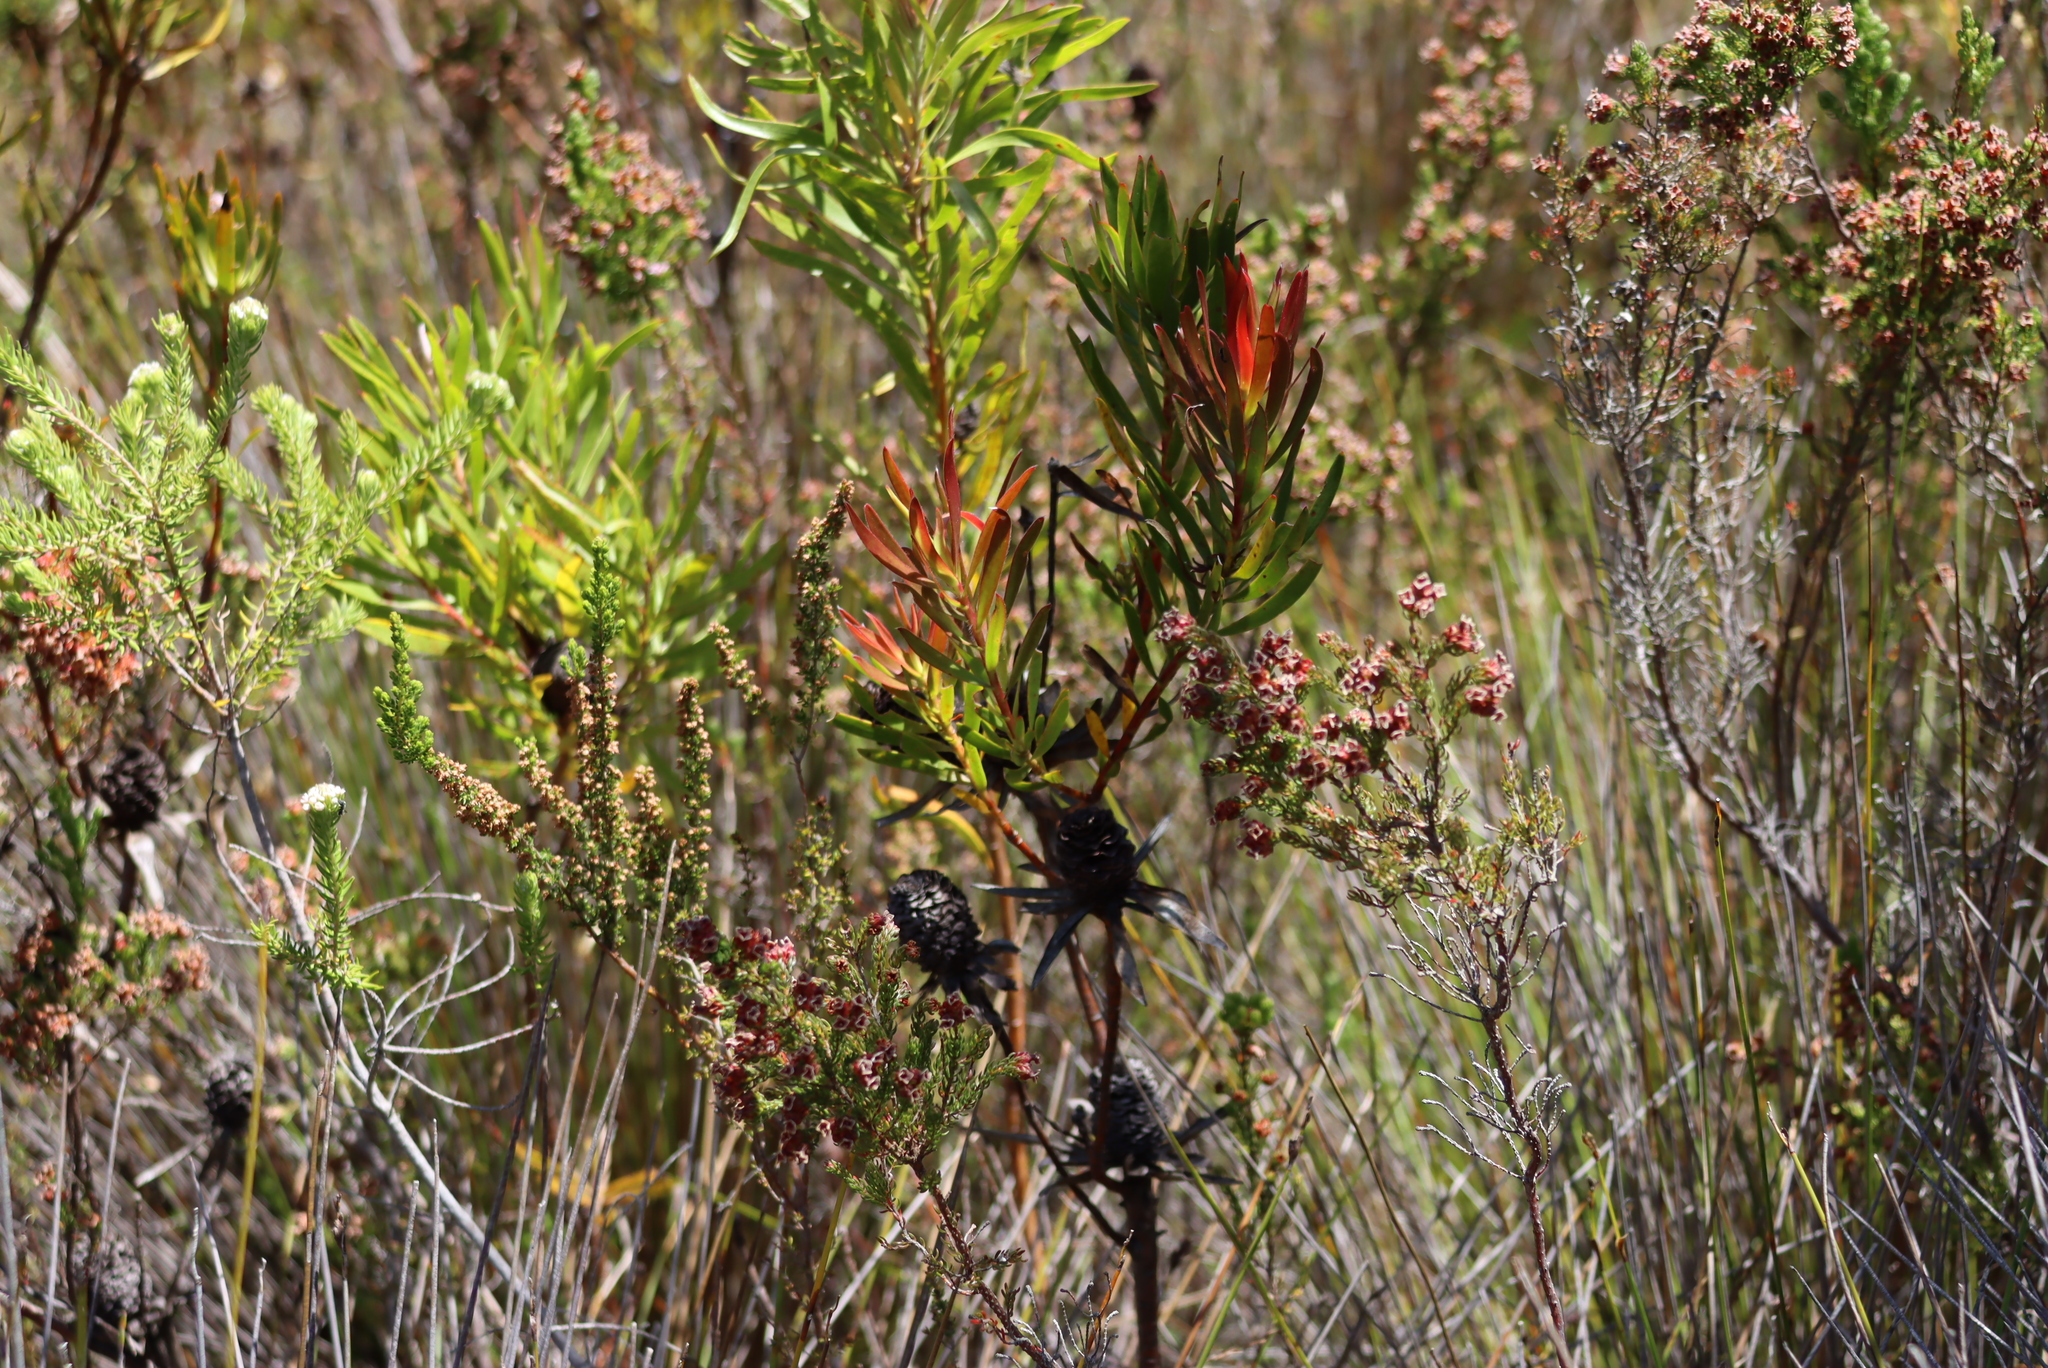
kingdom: Plantae
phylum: Tracheophyta
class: Magnoliopsida
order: Proteales
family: Proteaceae
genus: Leucadendron
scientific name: Leucadendron spissifolium
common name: Spear-leaf conebush
